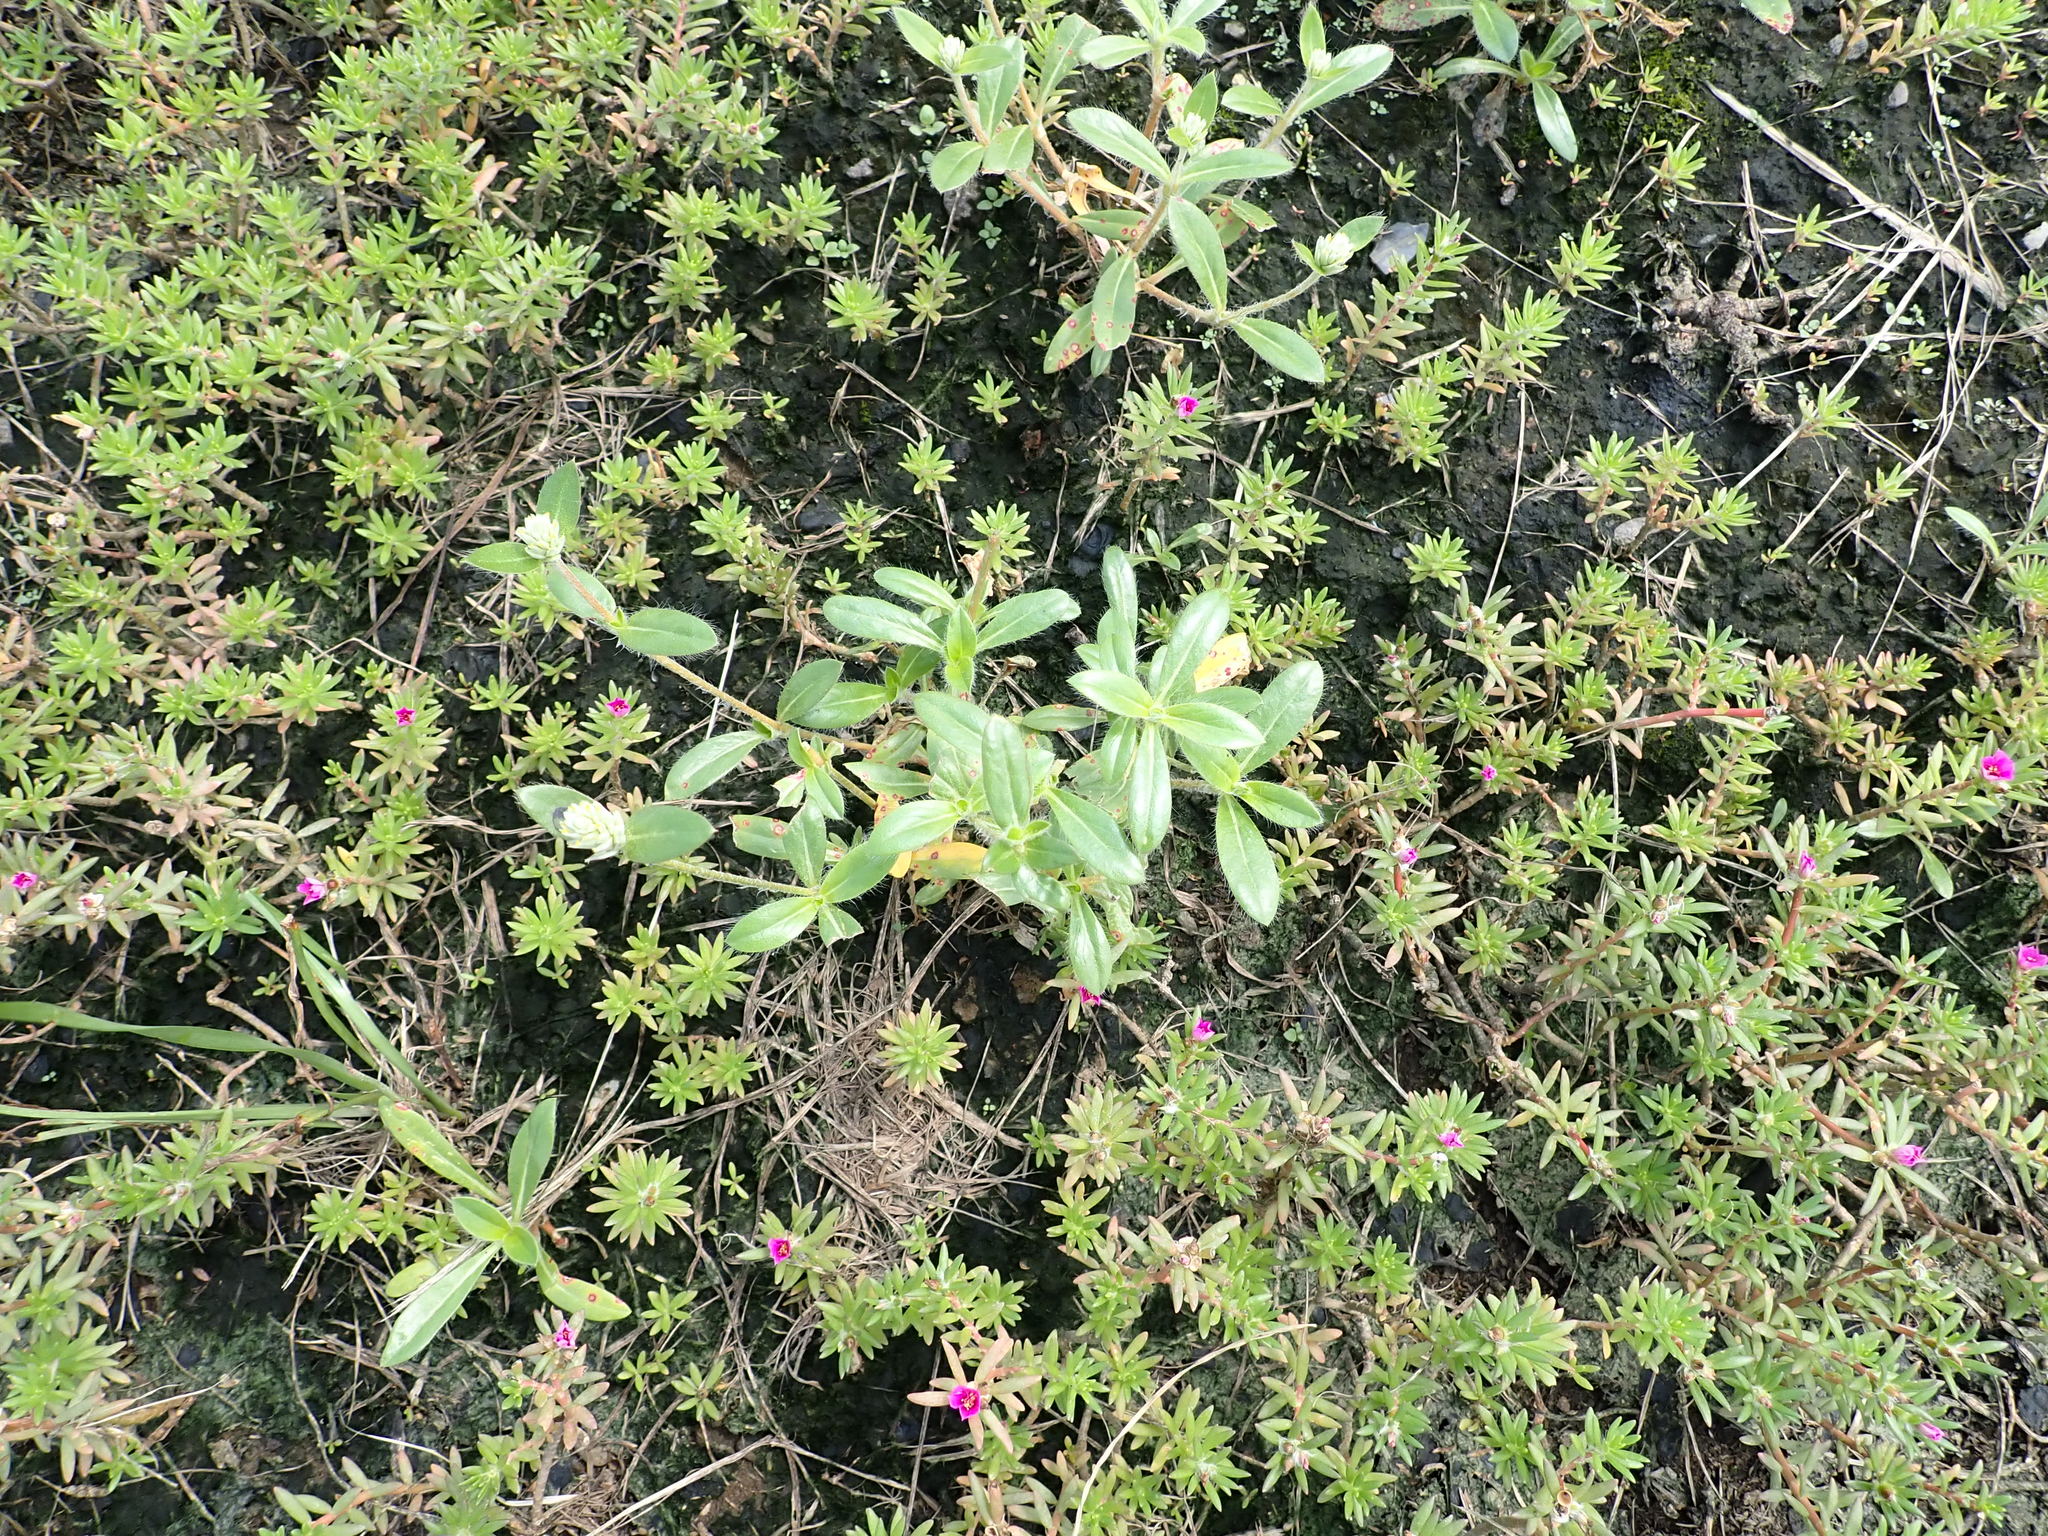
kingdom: Plantae
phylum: Tracheophyta
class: Magnoliopsida
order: Caryophyllales
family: Amaranthaceae
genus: Gomphrena
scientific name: Gomphrena celosioides
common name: Gomphrena-weed
